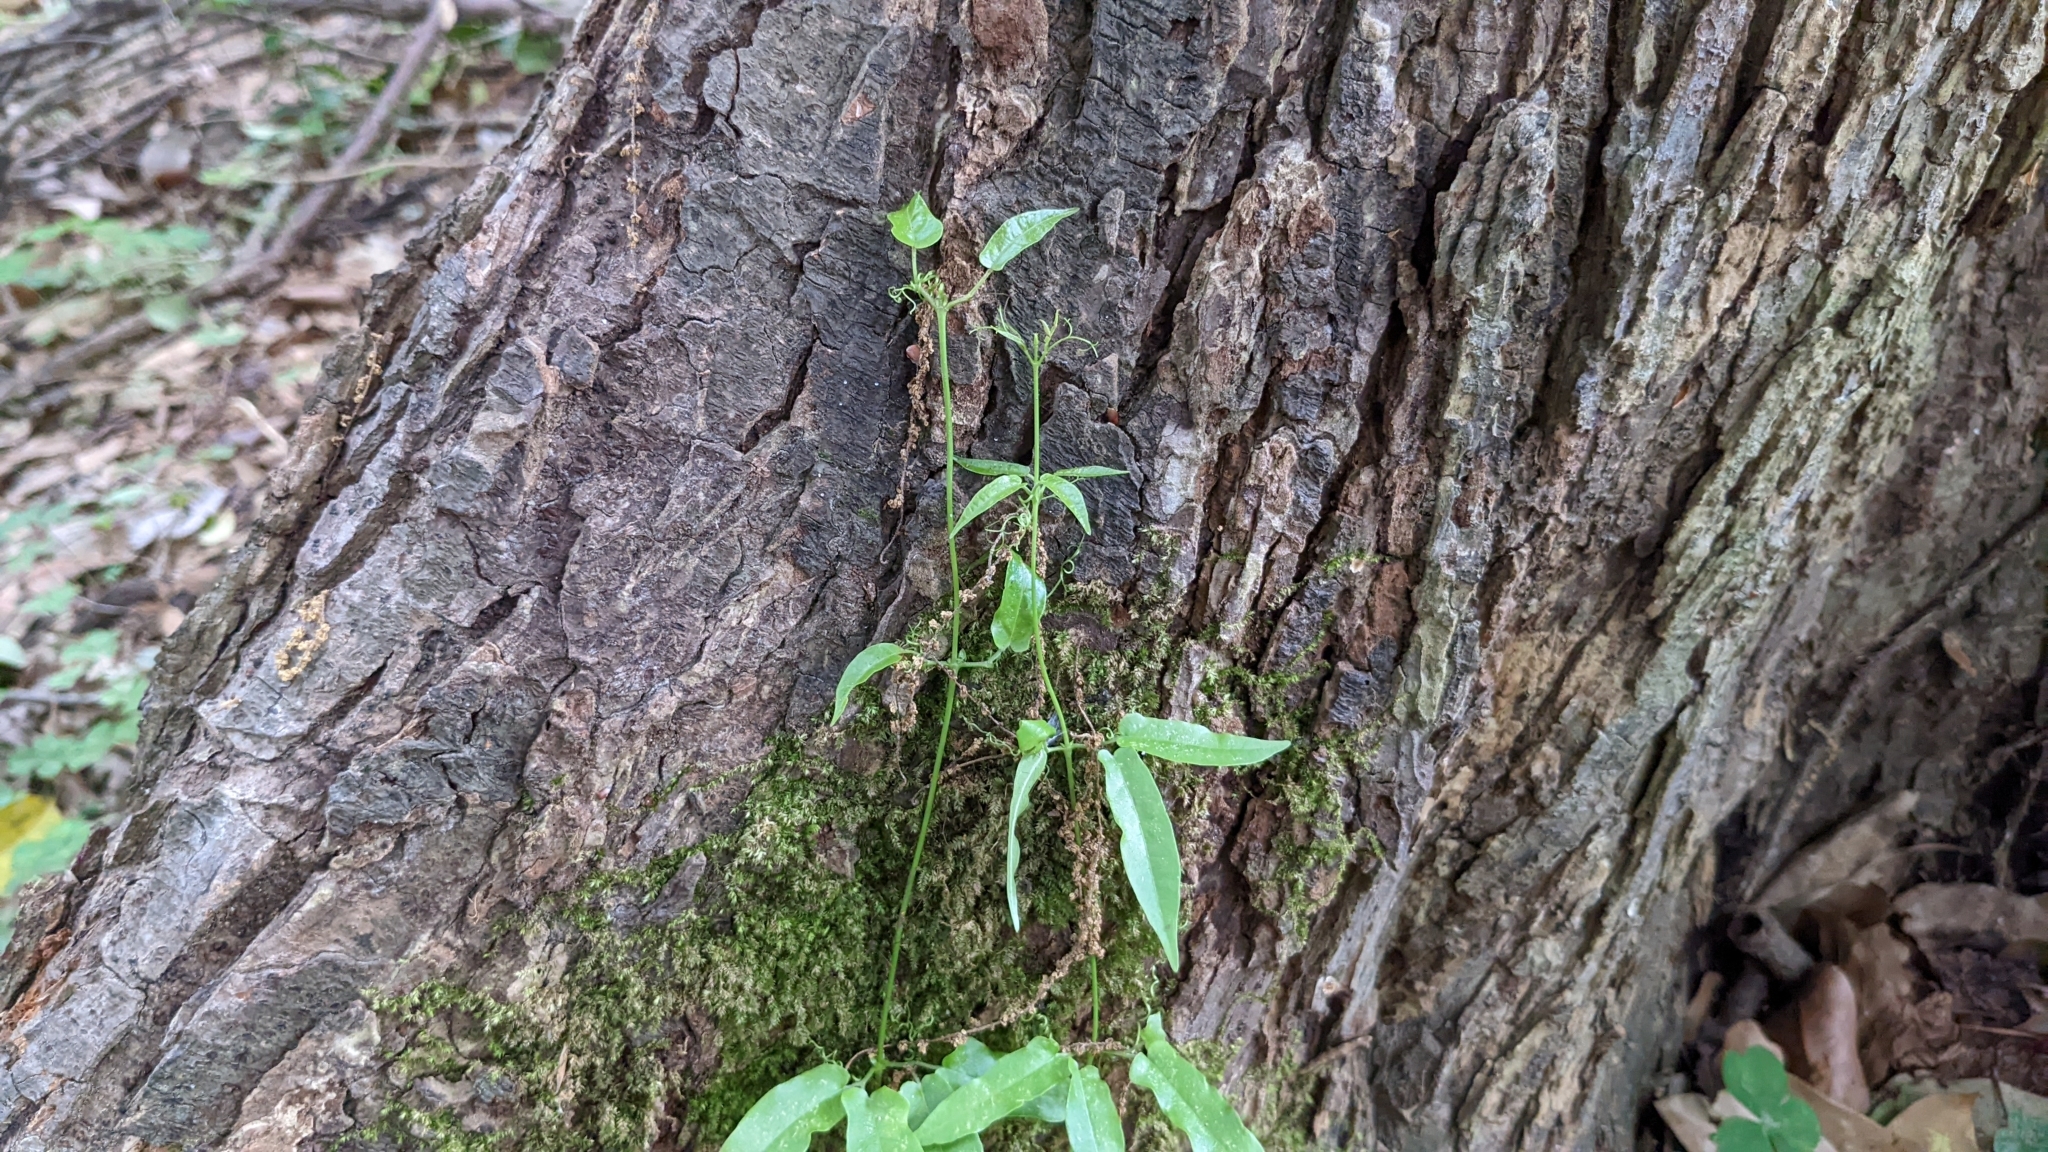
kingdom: Plantae
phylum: Tracheophyta
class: Magnoliopsida
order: Lamiales
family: Bignoniaceae
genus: Bignonia
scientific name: Bignonia capreolata
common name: Crossvine
